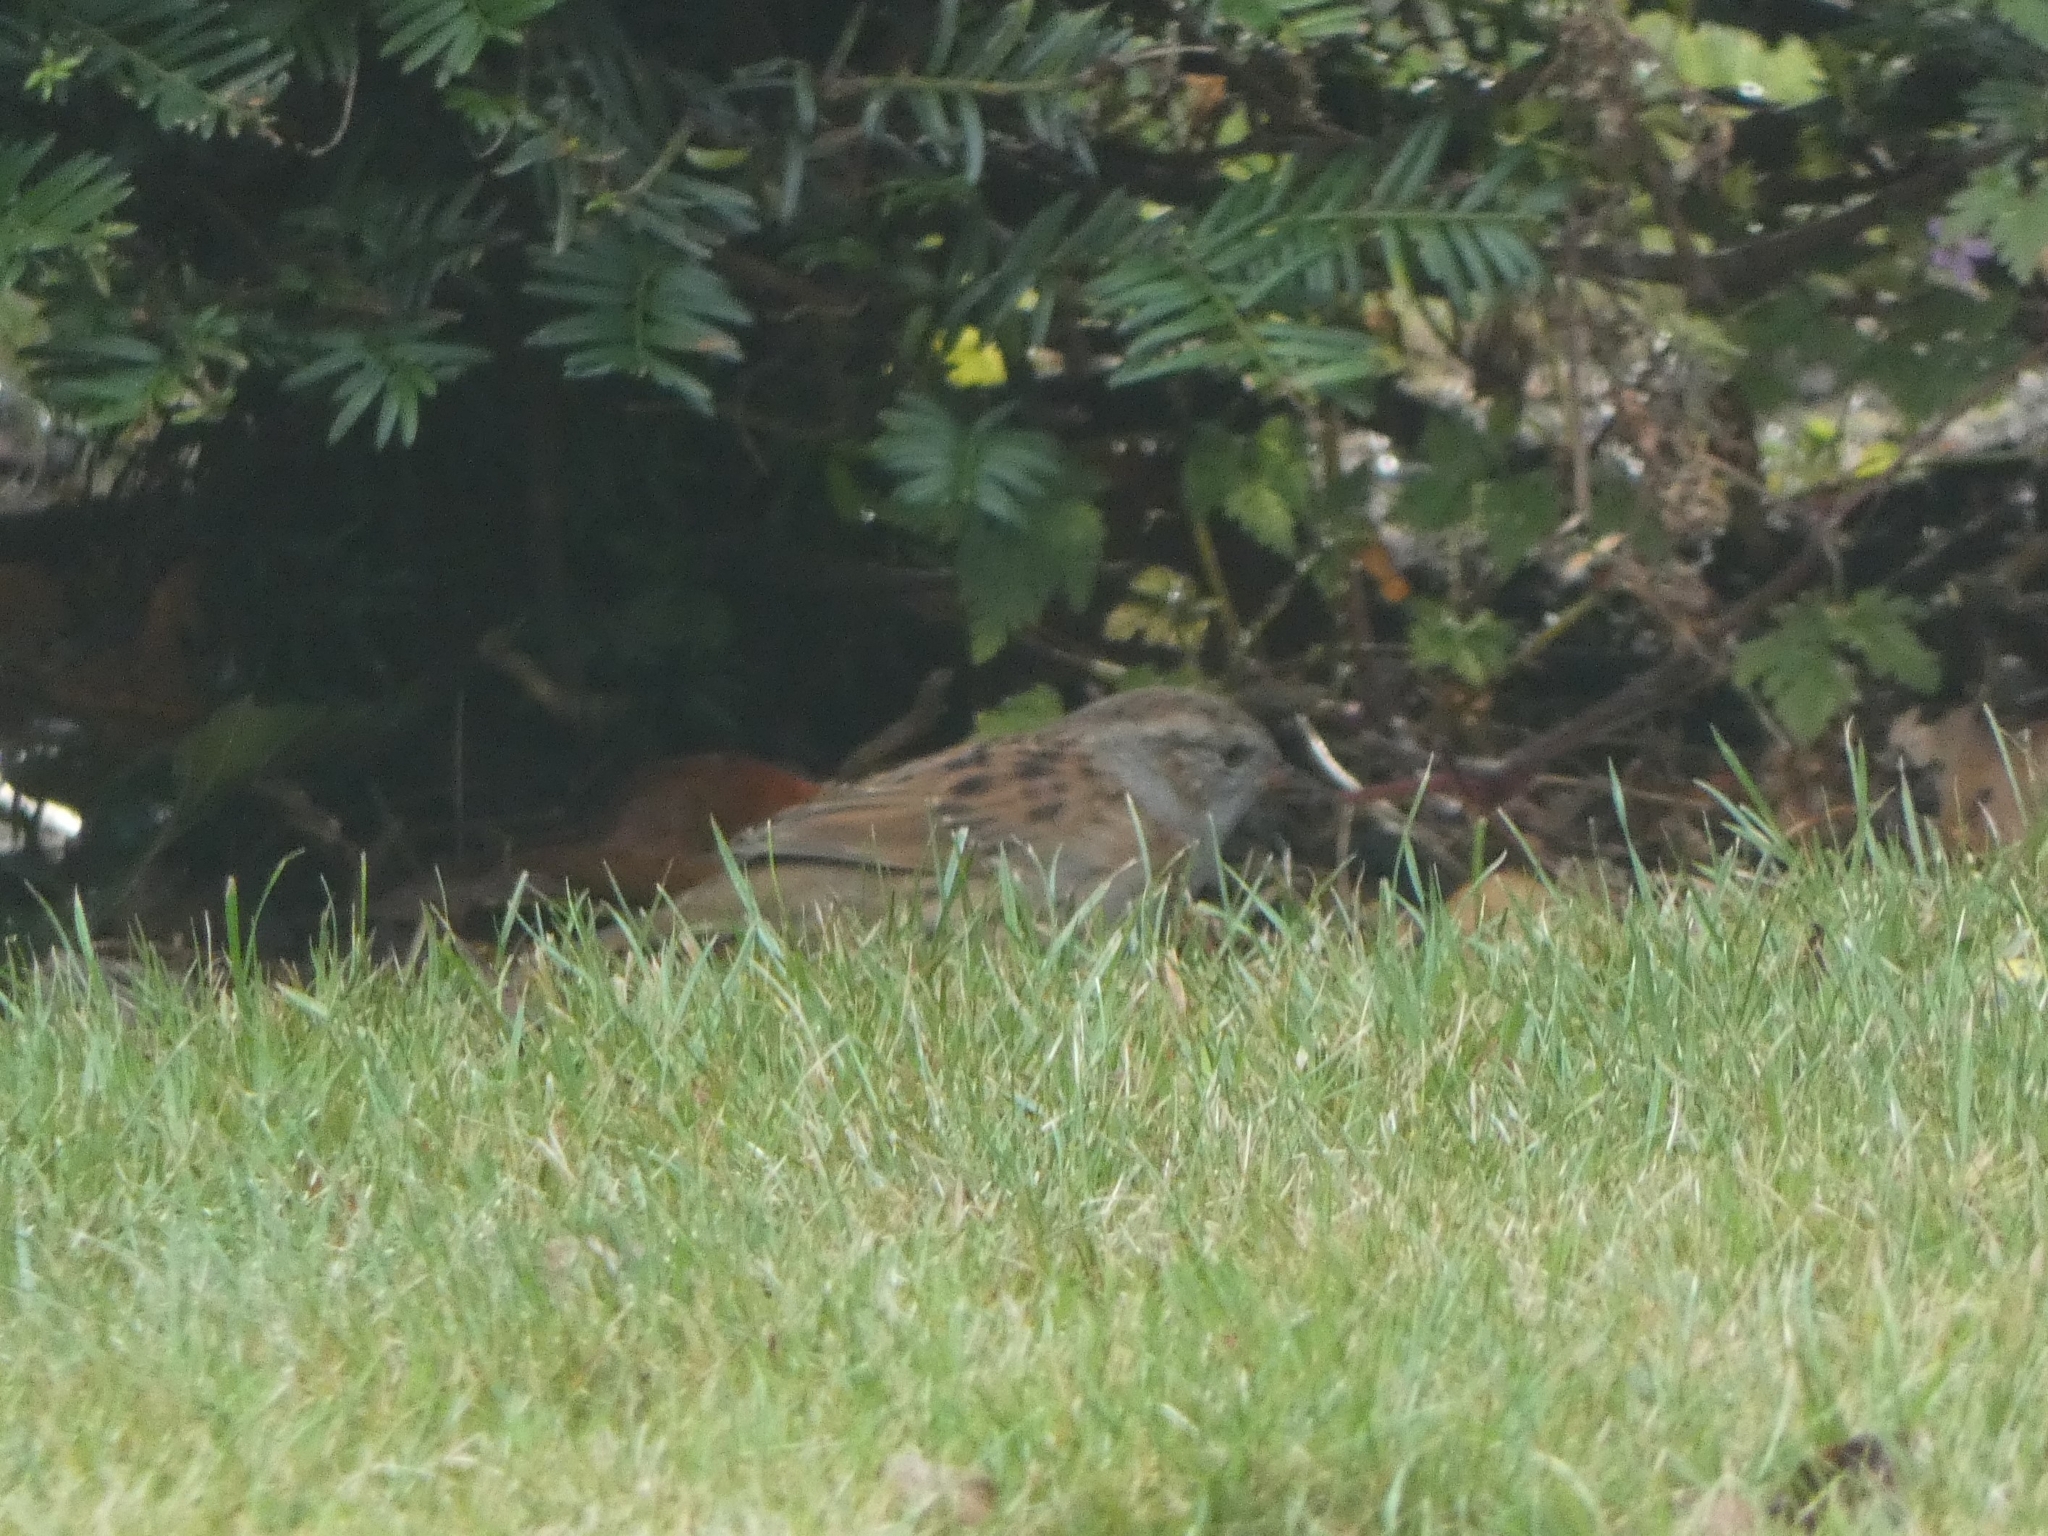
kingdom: Animalia
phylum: Chordata
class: Aves
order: Passeriformes
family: Prunellidae
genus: Prunella
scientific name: Prunella modularis
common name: Dunnock
